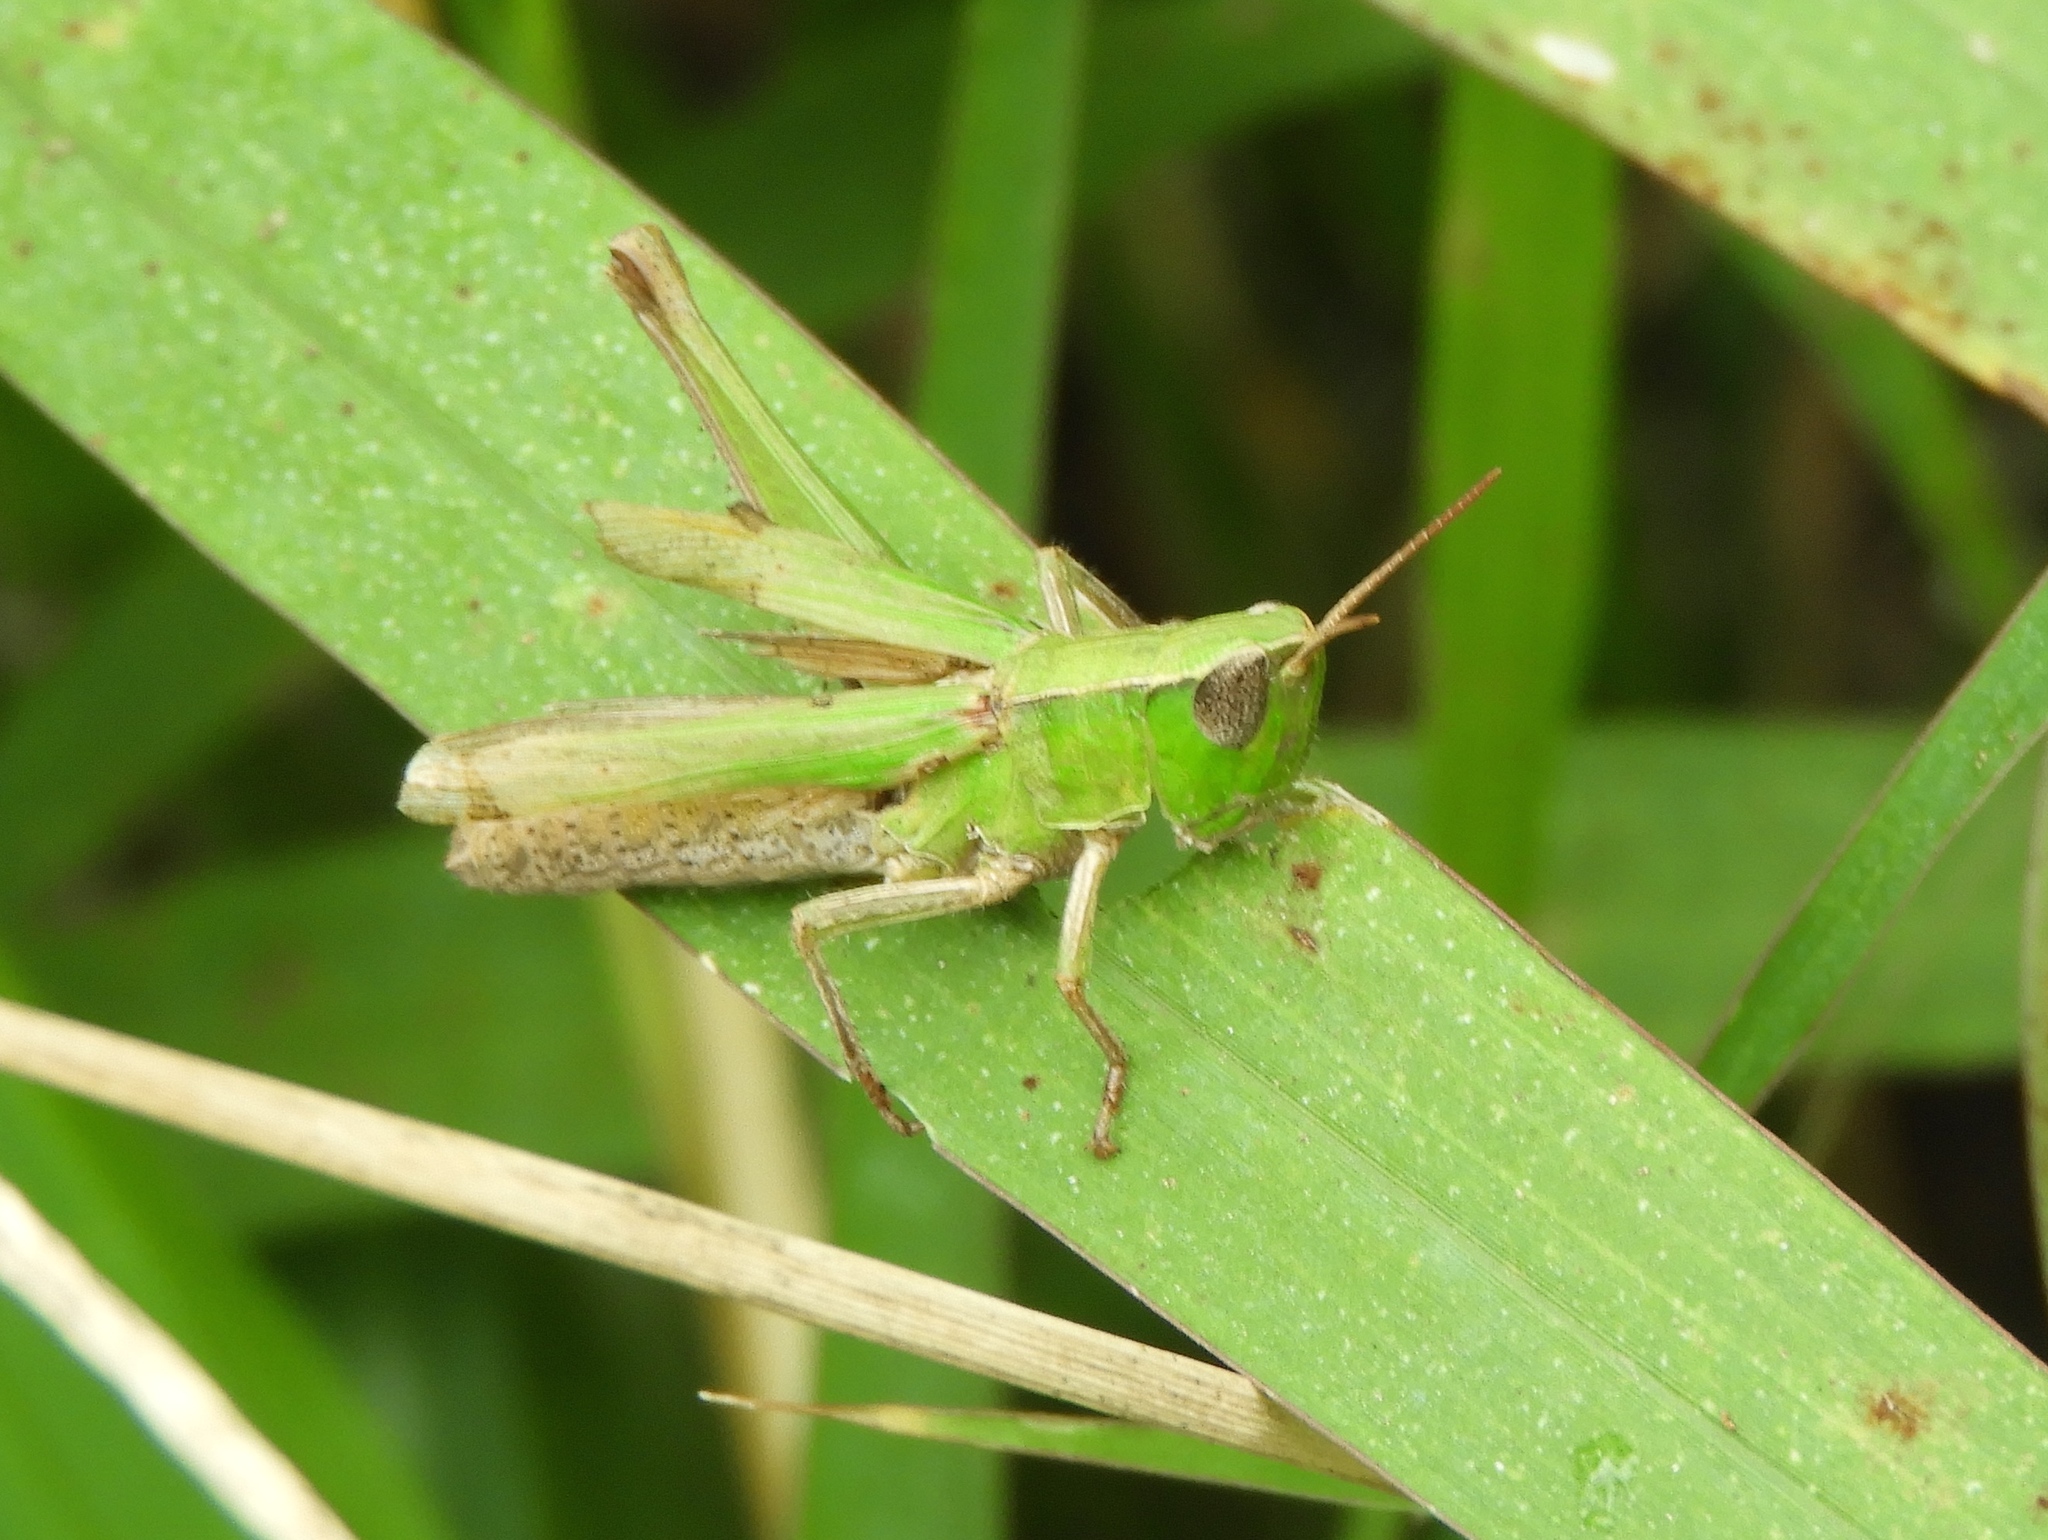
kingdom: Animalia
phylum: Arthropoda
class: Insecta
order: Orthoptera
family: Acrididae
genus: Dichromorpha
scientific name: Dichromorpha prominula
